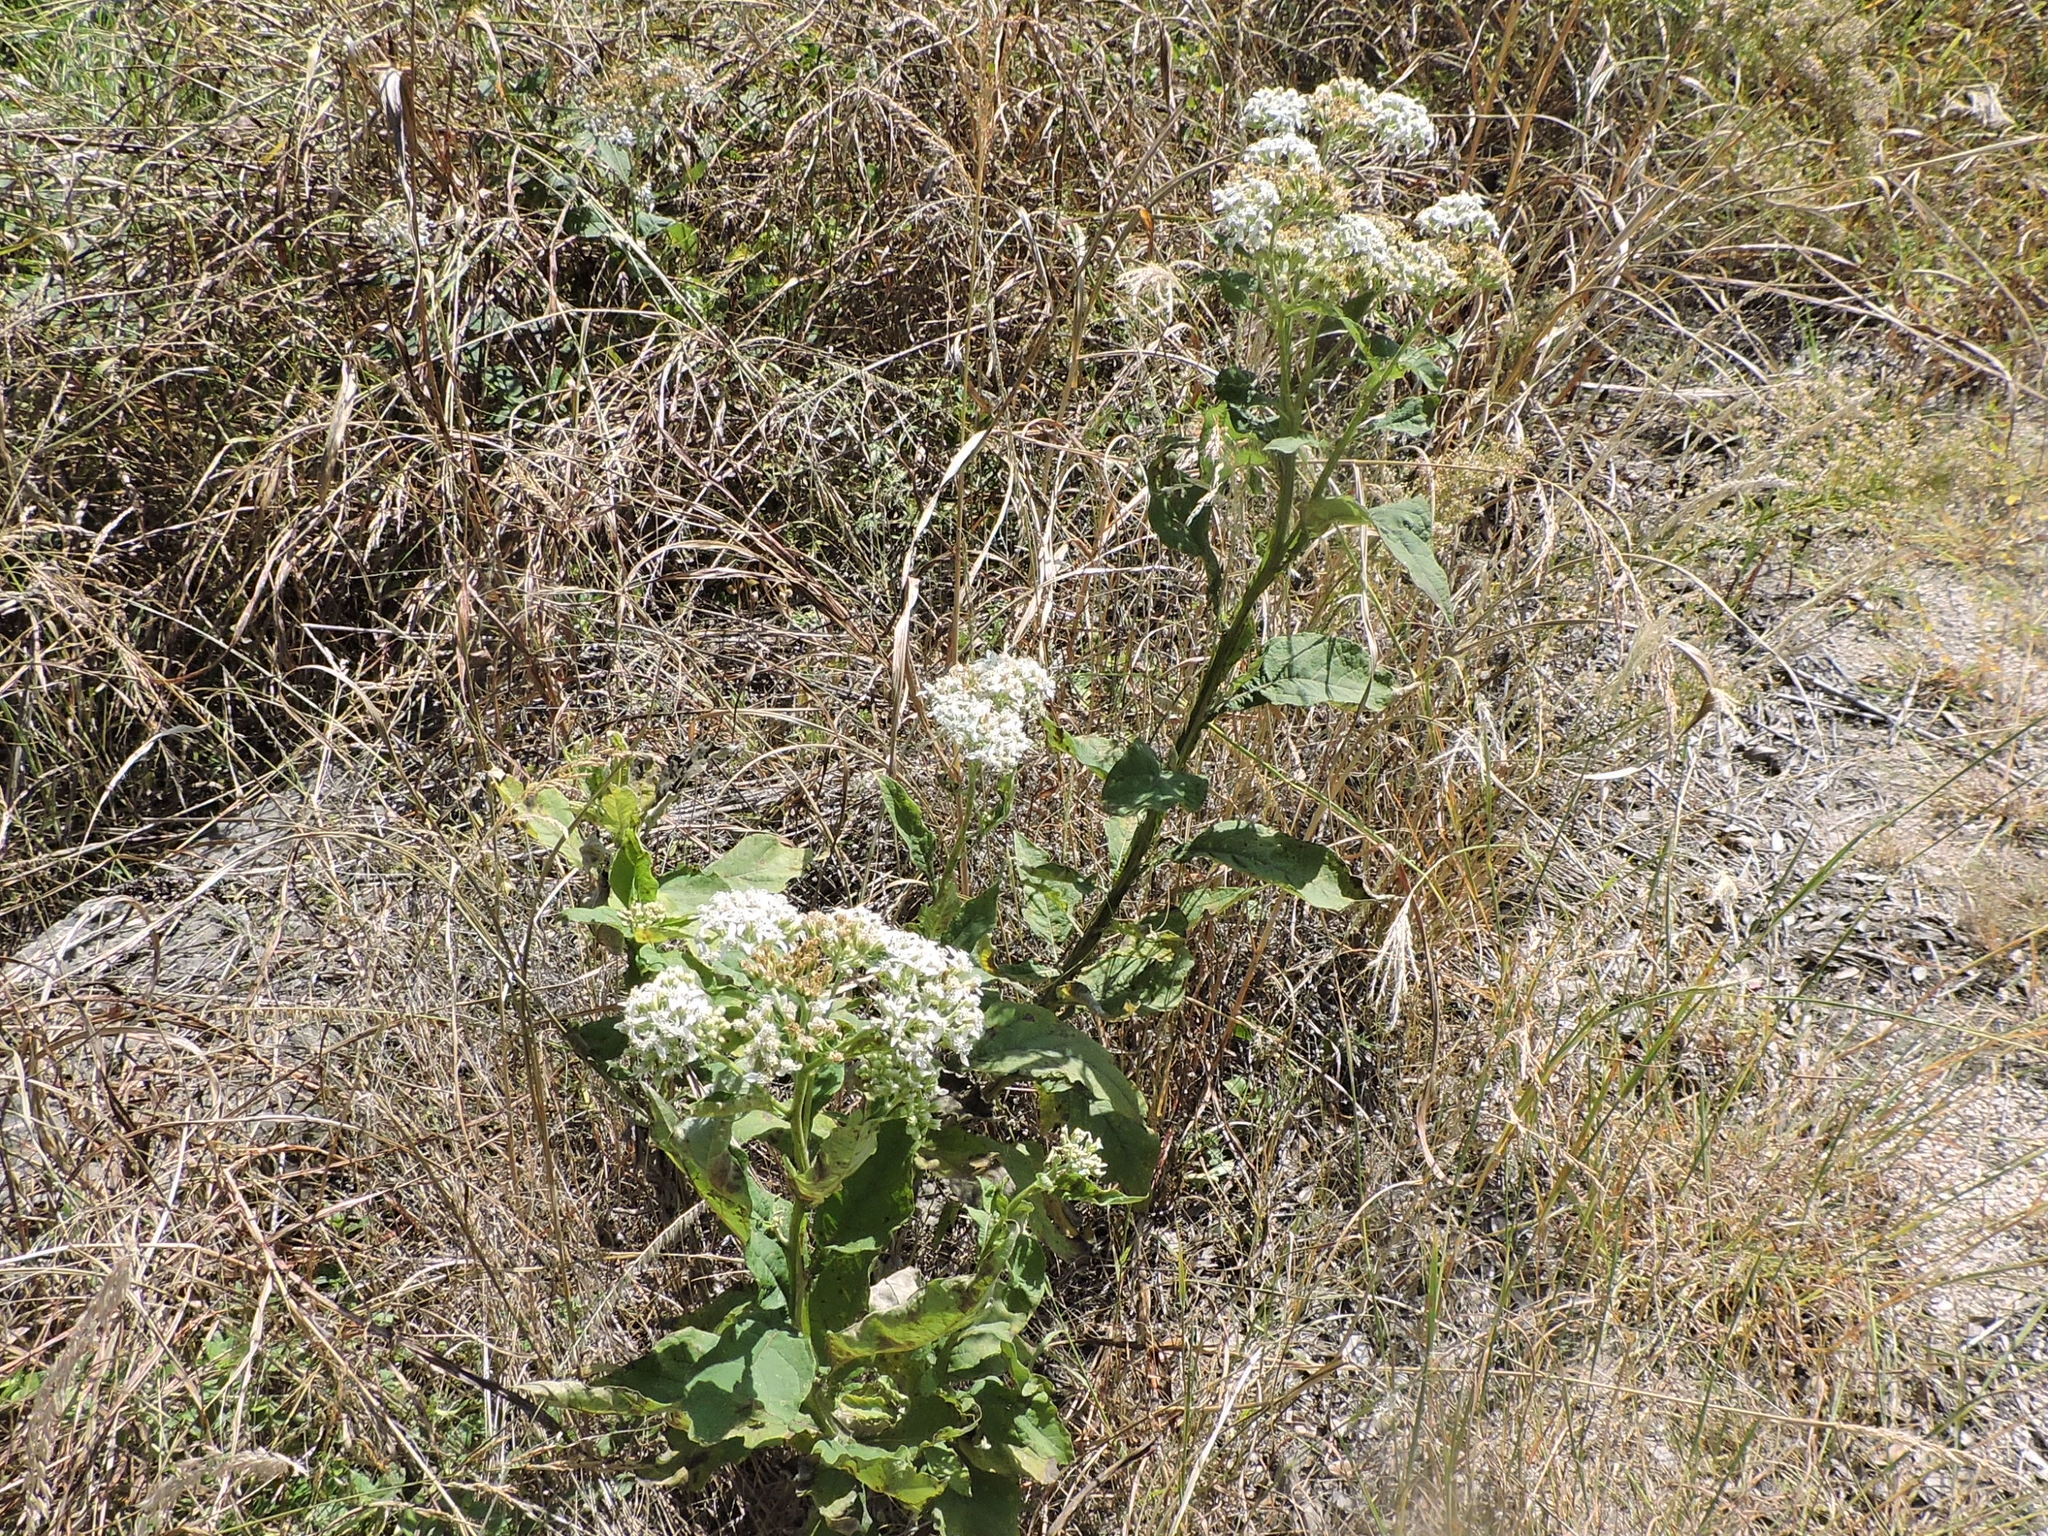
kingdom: Plantae
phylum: Tracheophyta
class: Magnoliopsida
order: Asterales
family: Asteraceae
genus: Verbesina
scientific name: Verbesina virginica
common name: Frostweed
